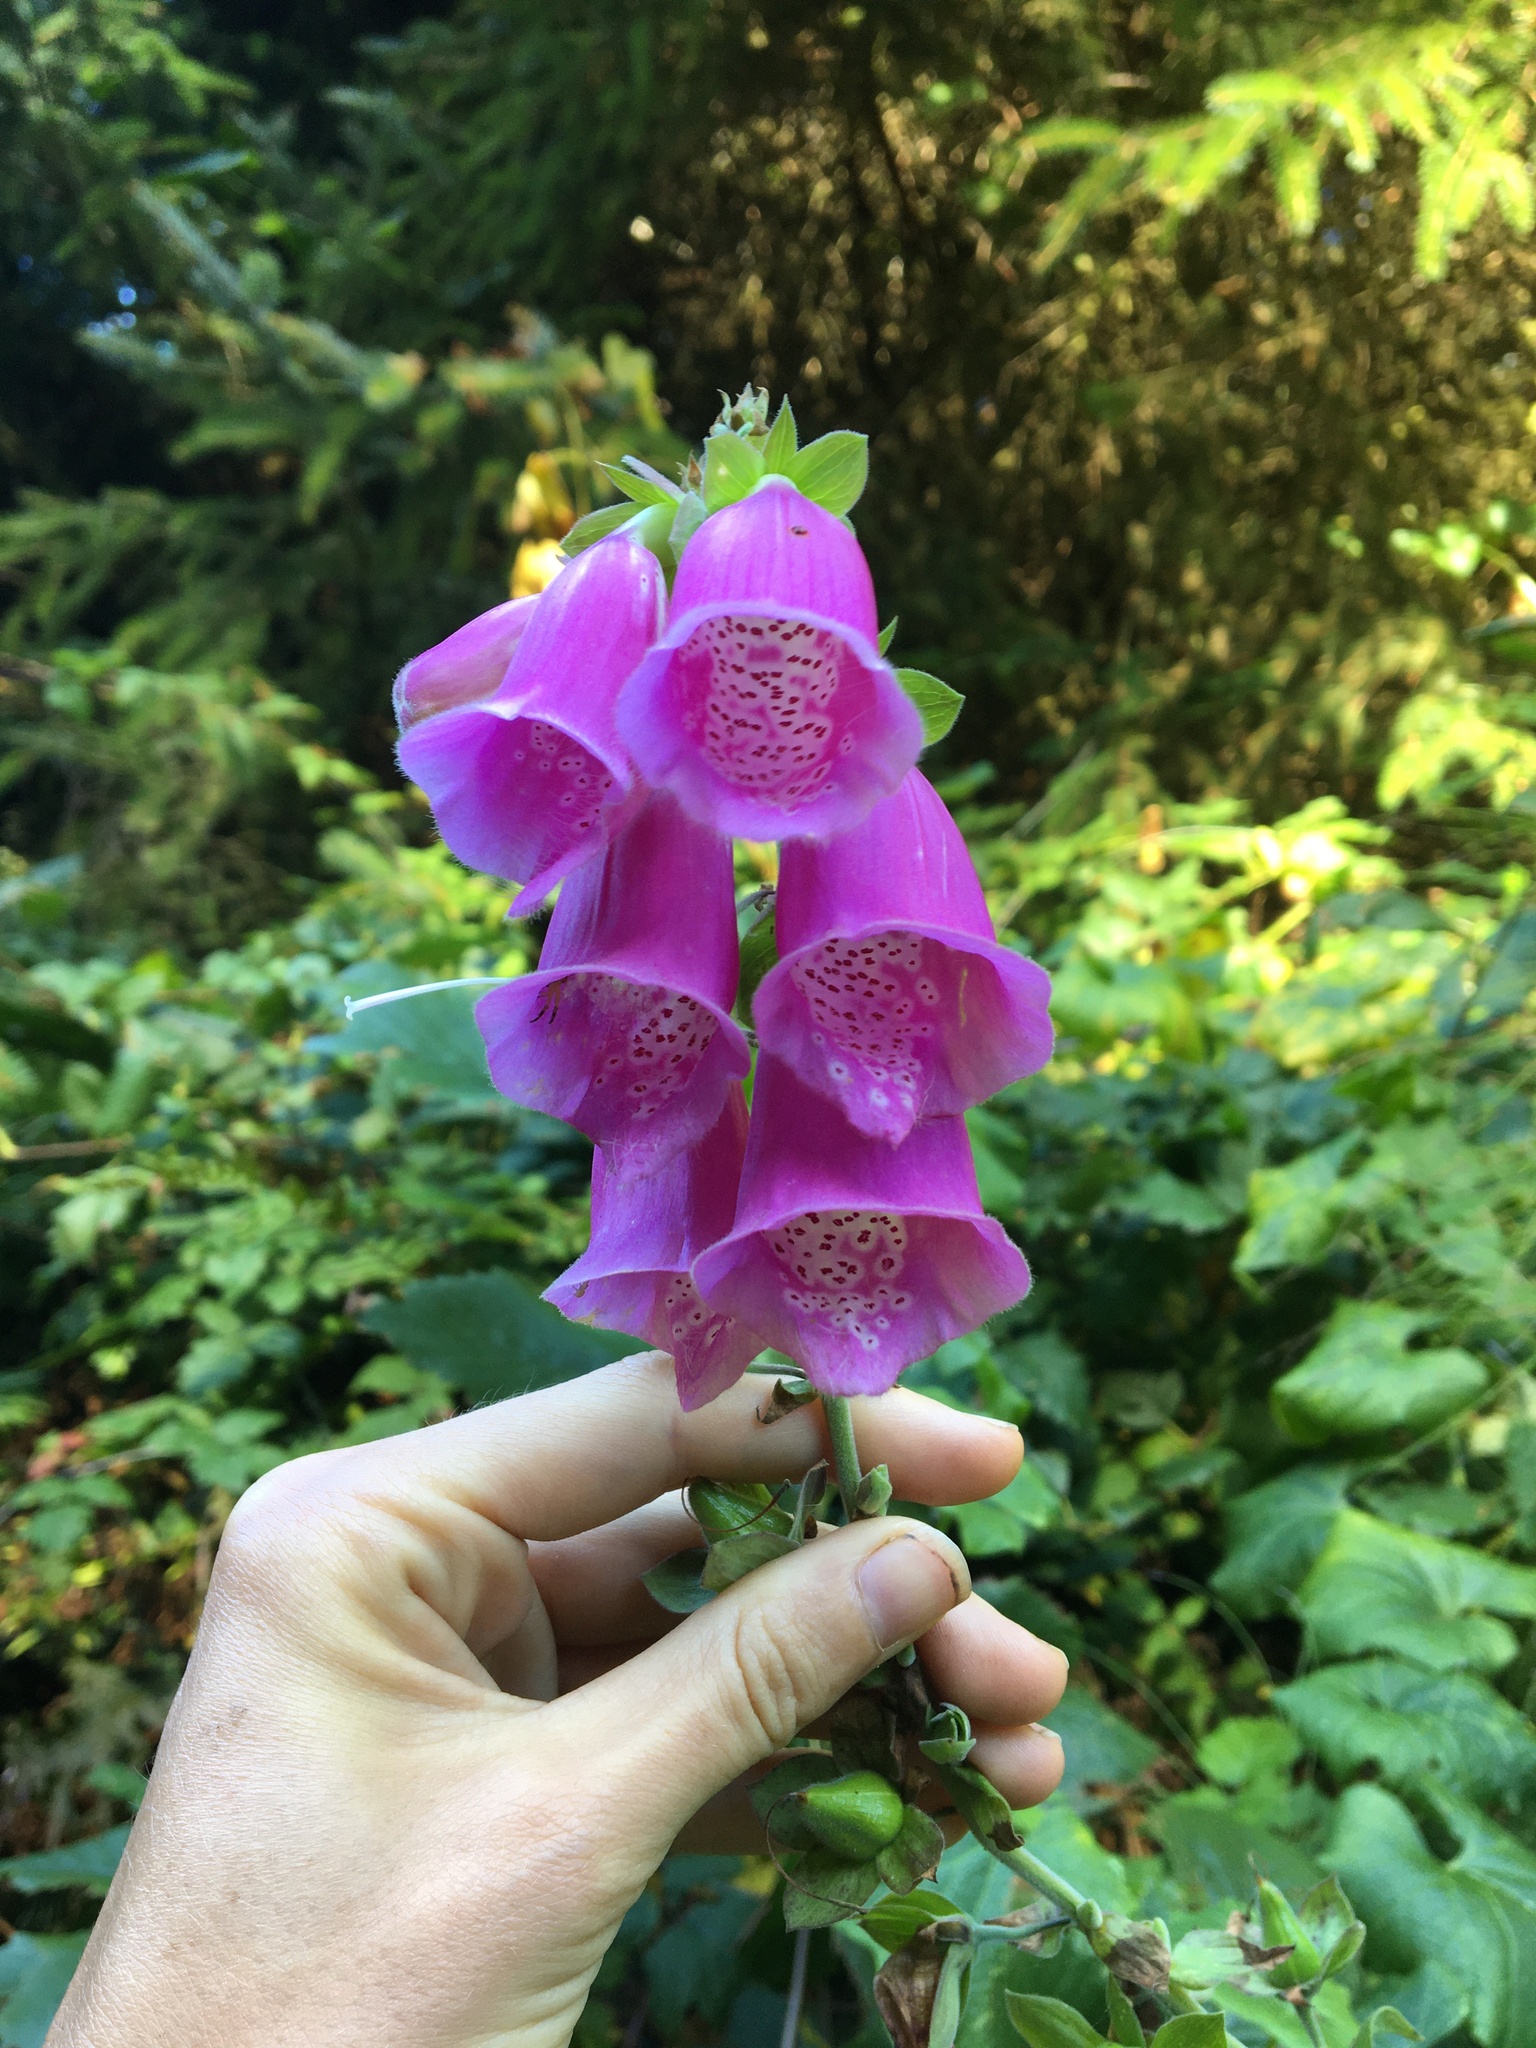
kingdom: Plantae
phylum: Tracheophyta
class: Magnoliopsida
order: Lamiales
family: Plantaginaceae
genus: Digitalis
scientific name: Digitalis purpurea
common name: Foxglove
